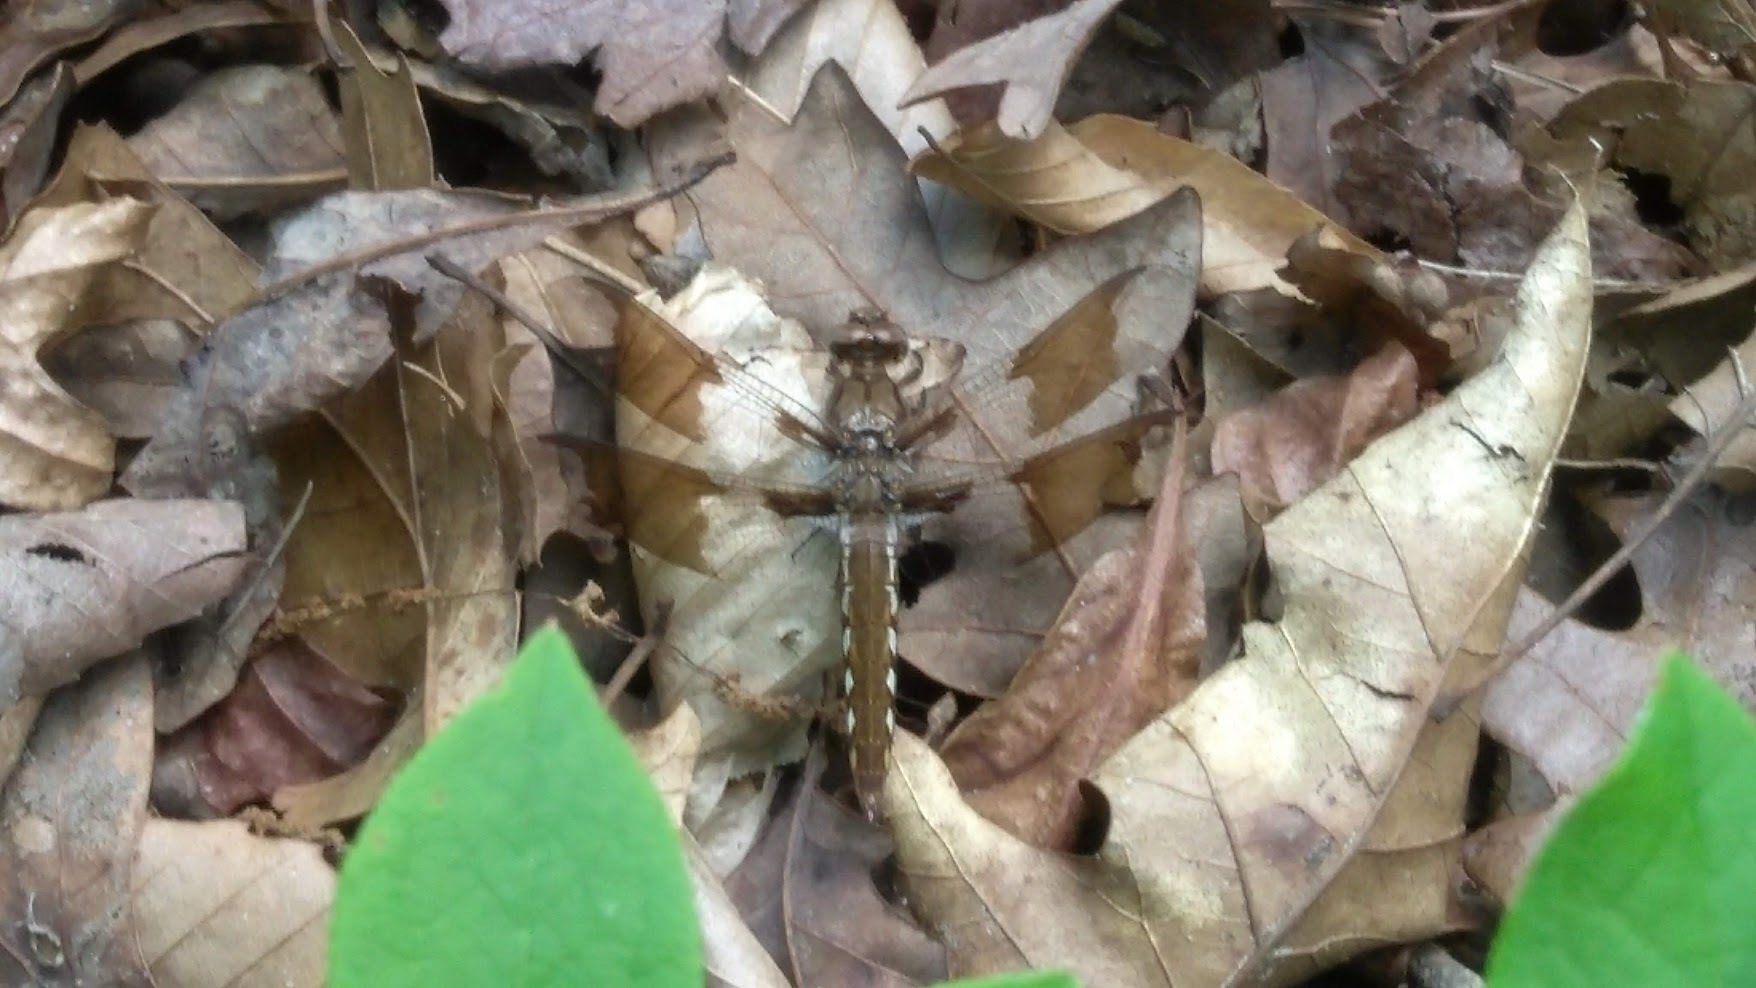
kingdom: Animalia
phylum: Arthropoda
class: Insecta
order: Odonata
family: Libellulidae
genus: Plathemis
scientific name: Plathemis lydia
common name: Common whitetail
